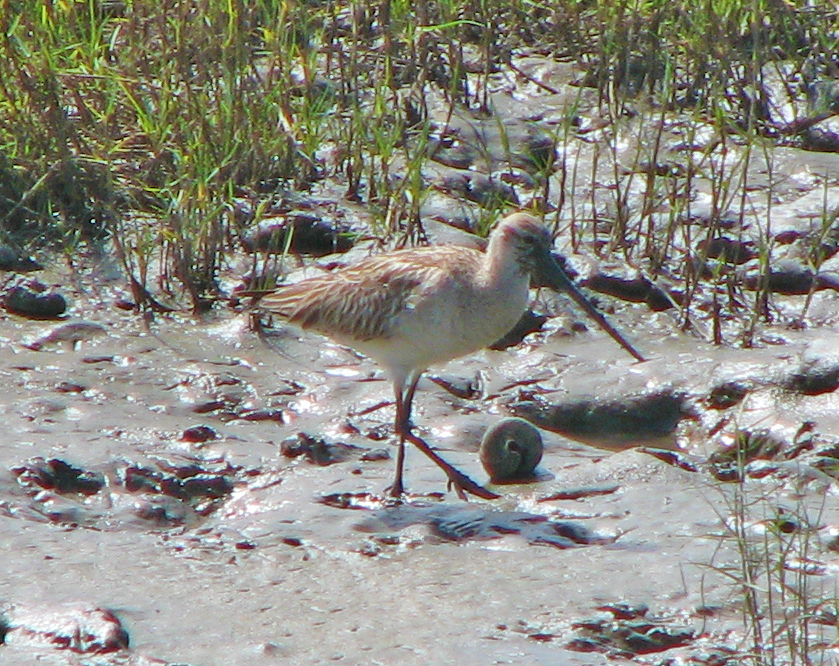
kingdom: Animalia
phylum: Chordata
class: Aves
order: Charadriiformes
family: Scolopacidae
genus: Limosa
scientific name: Limosa lapponica
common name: Bar-tailed godwit
